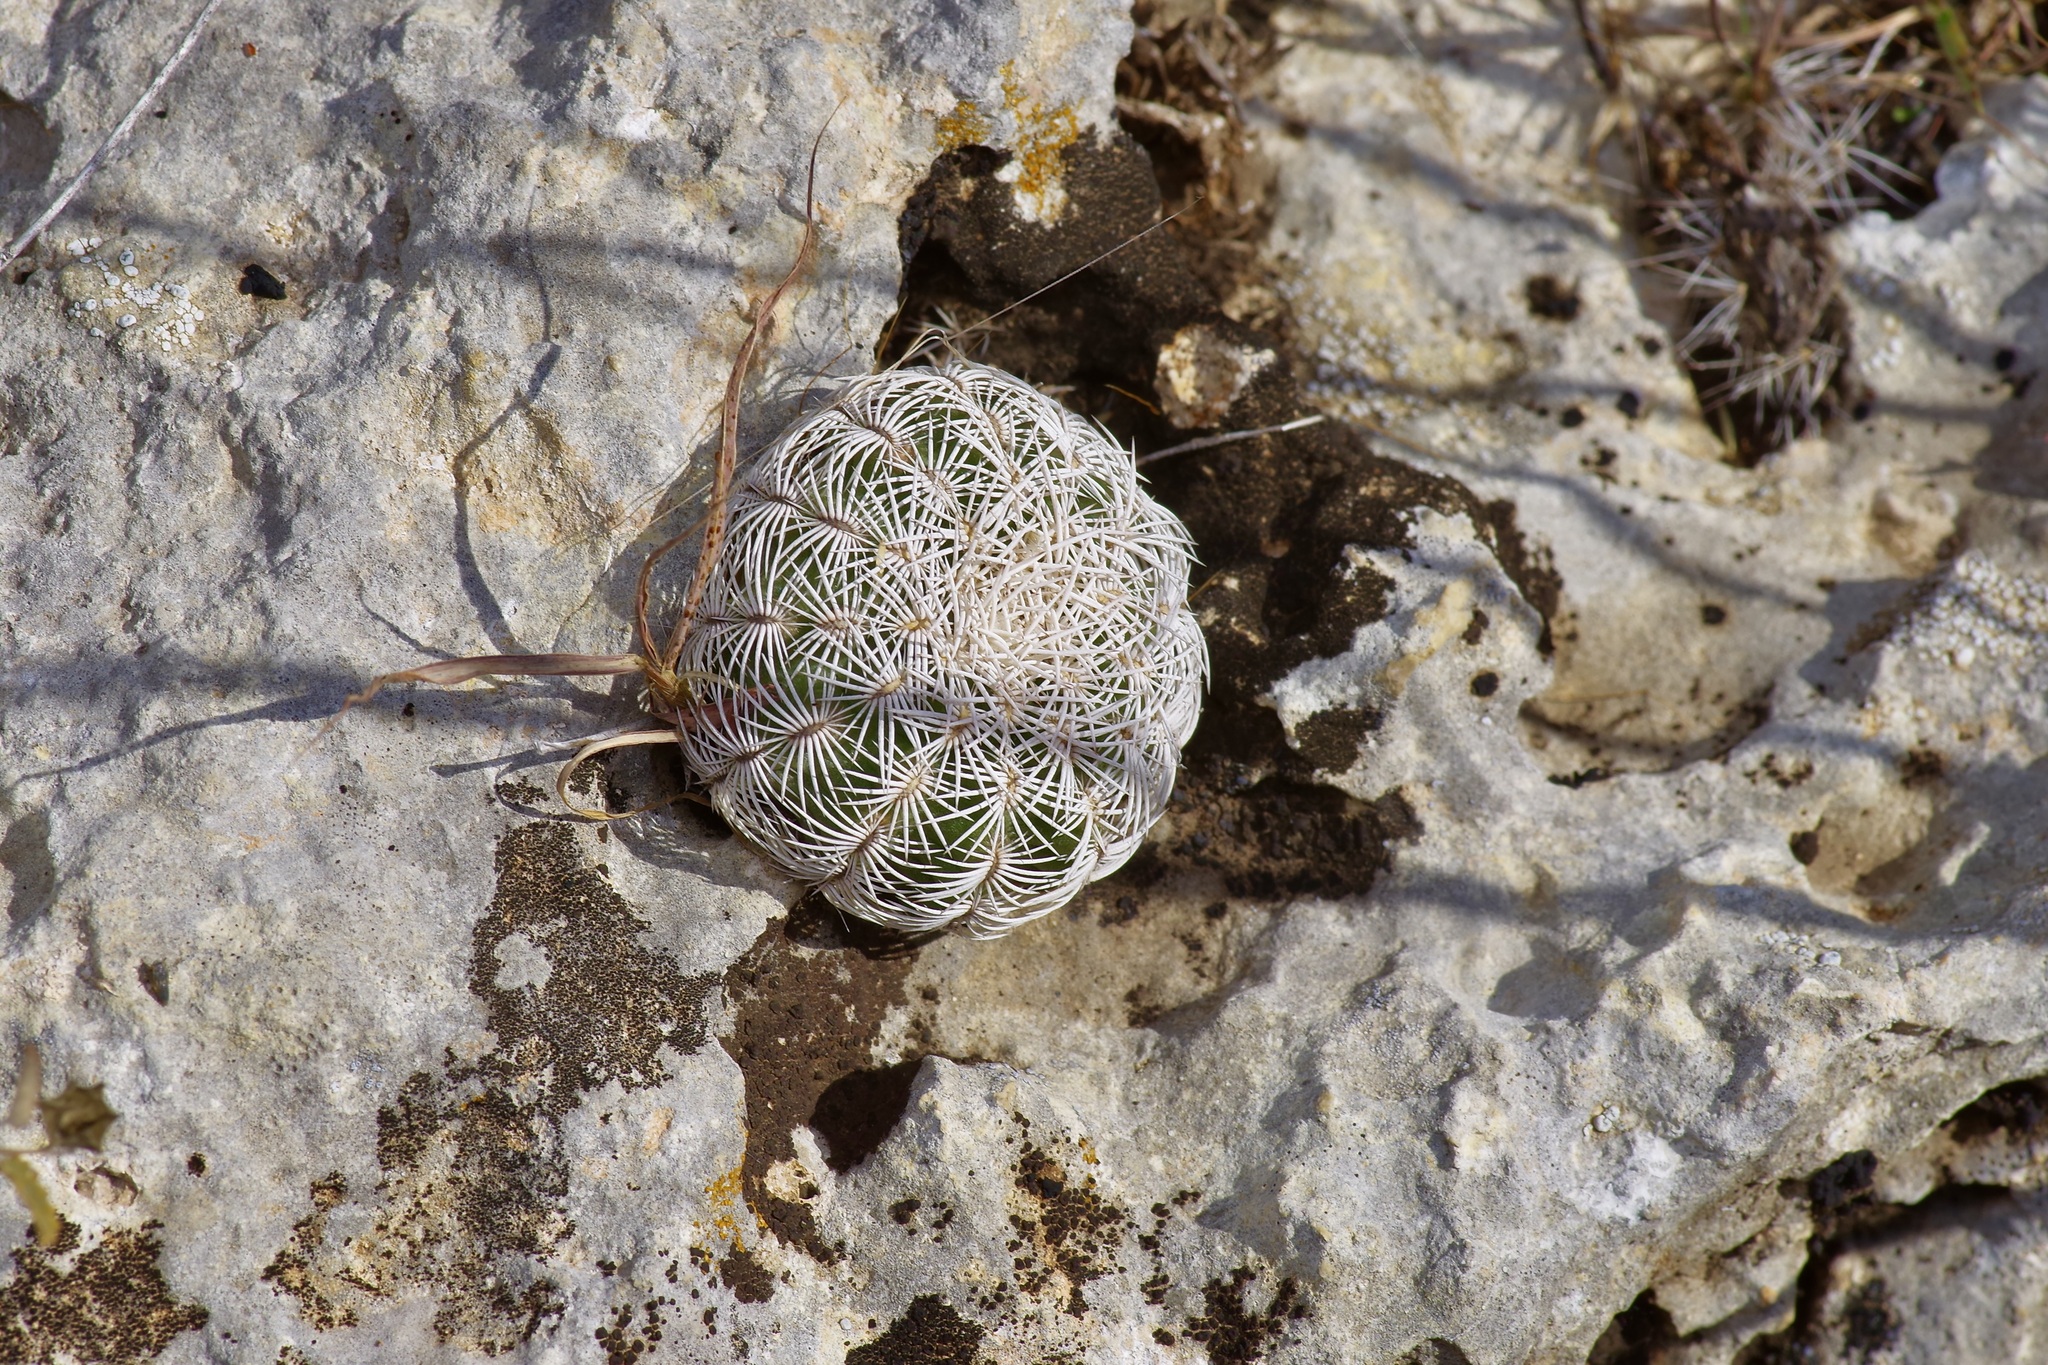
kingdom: Plantae
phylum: Tracheophyta
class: Magnoliopsida
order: Caryophyllales
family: Cactaceae
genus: Echinocereus
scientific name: Echinocereus reichenbachii
